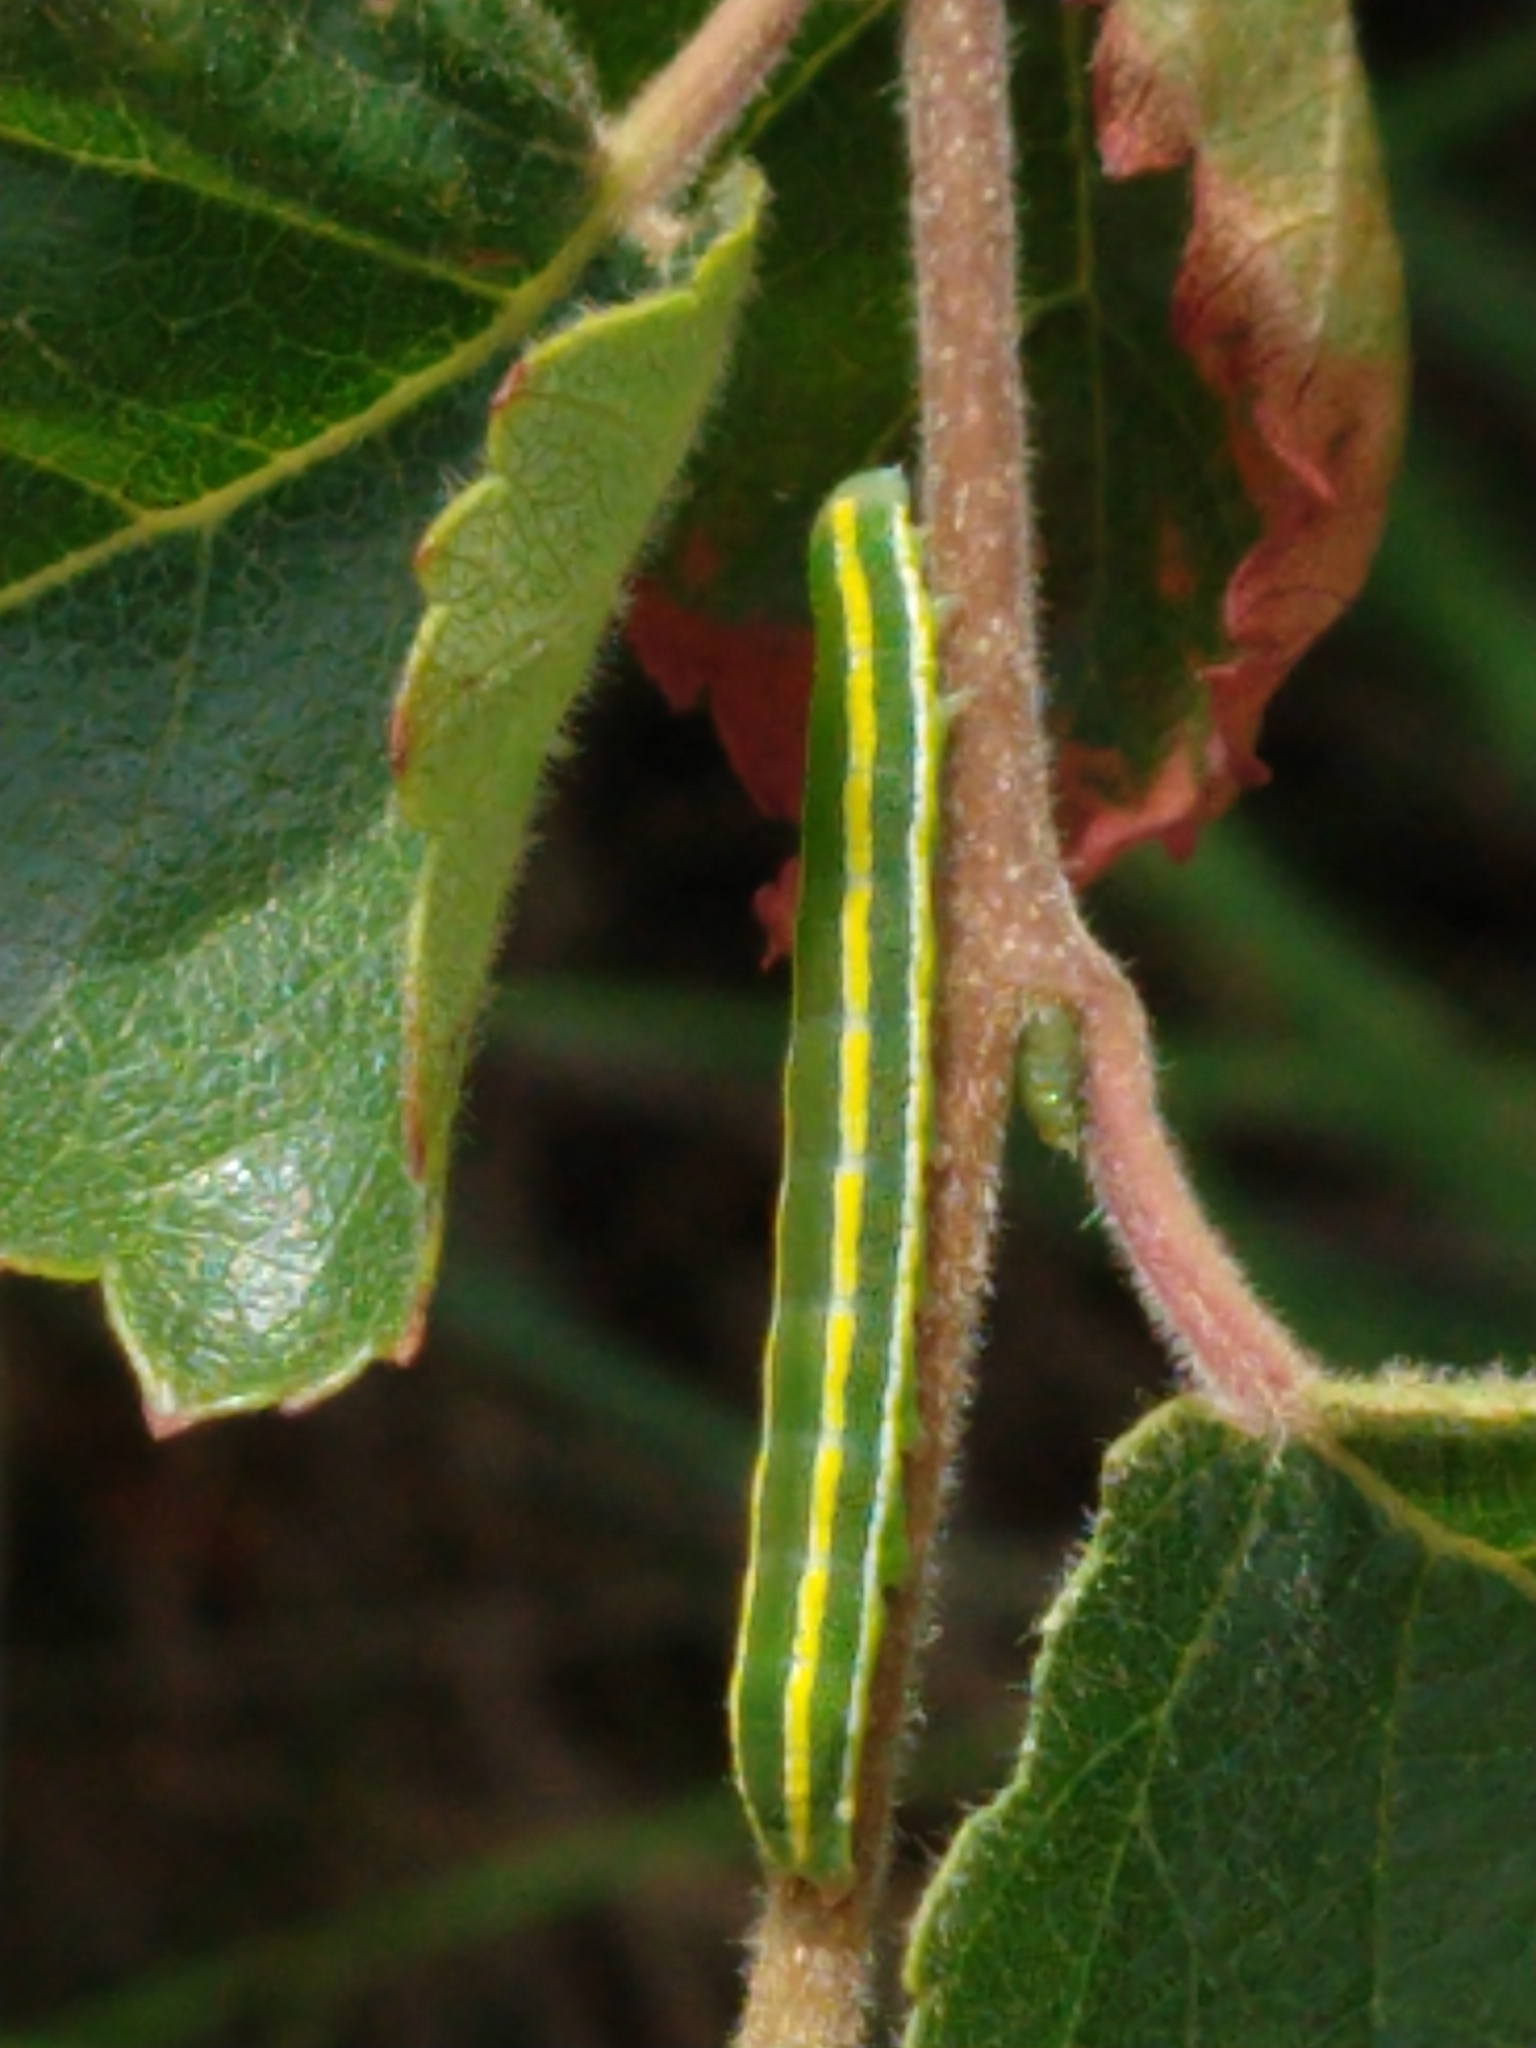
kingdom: Animalia
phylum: Arthropoda
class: Insecta
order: Lepidoptera
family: Noctuidae
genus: Ceramica
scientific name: Ceramica pisi
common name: Broom moth
